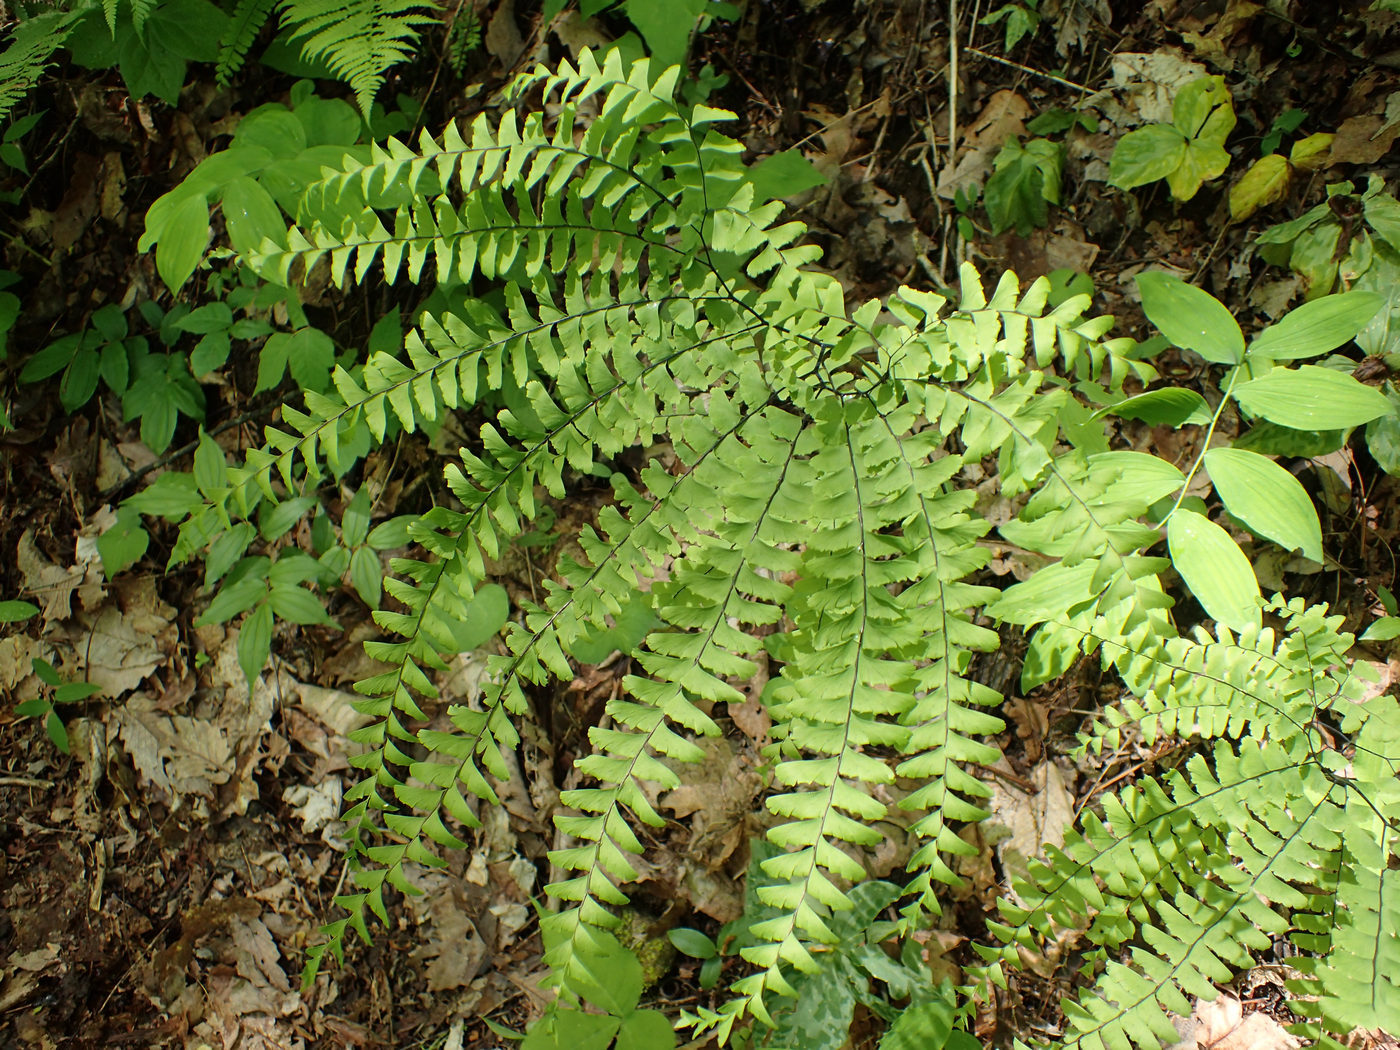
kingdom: Plantae
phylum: Tracheophyta
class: Polypodiopsida
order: Polypodiales
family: Pteridaceae
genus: Adiantum
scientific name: Adiantum pedatum
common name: Five-finger fern
